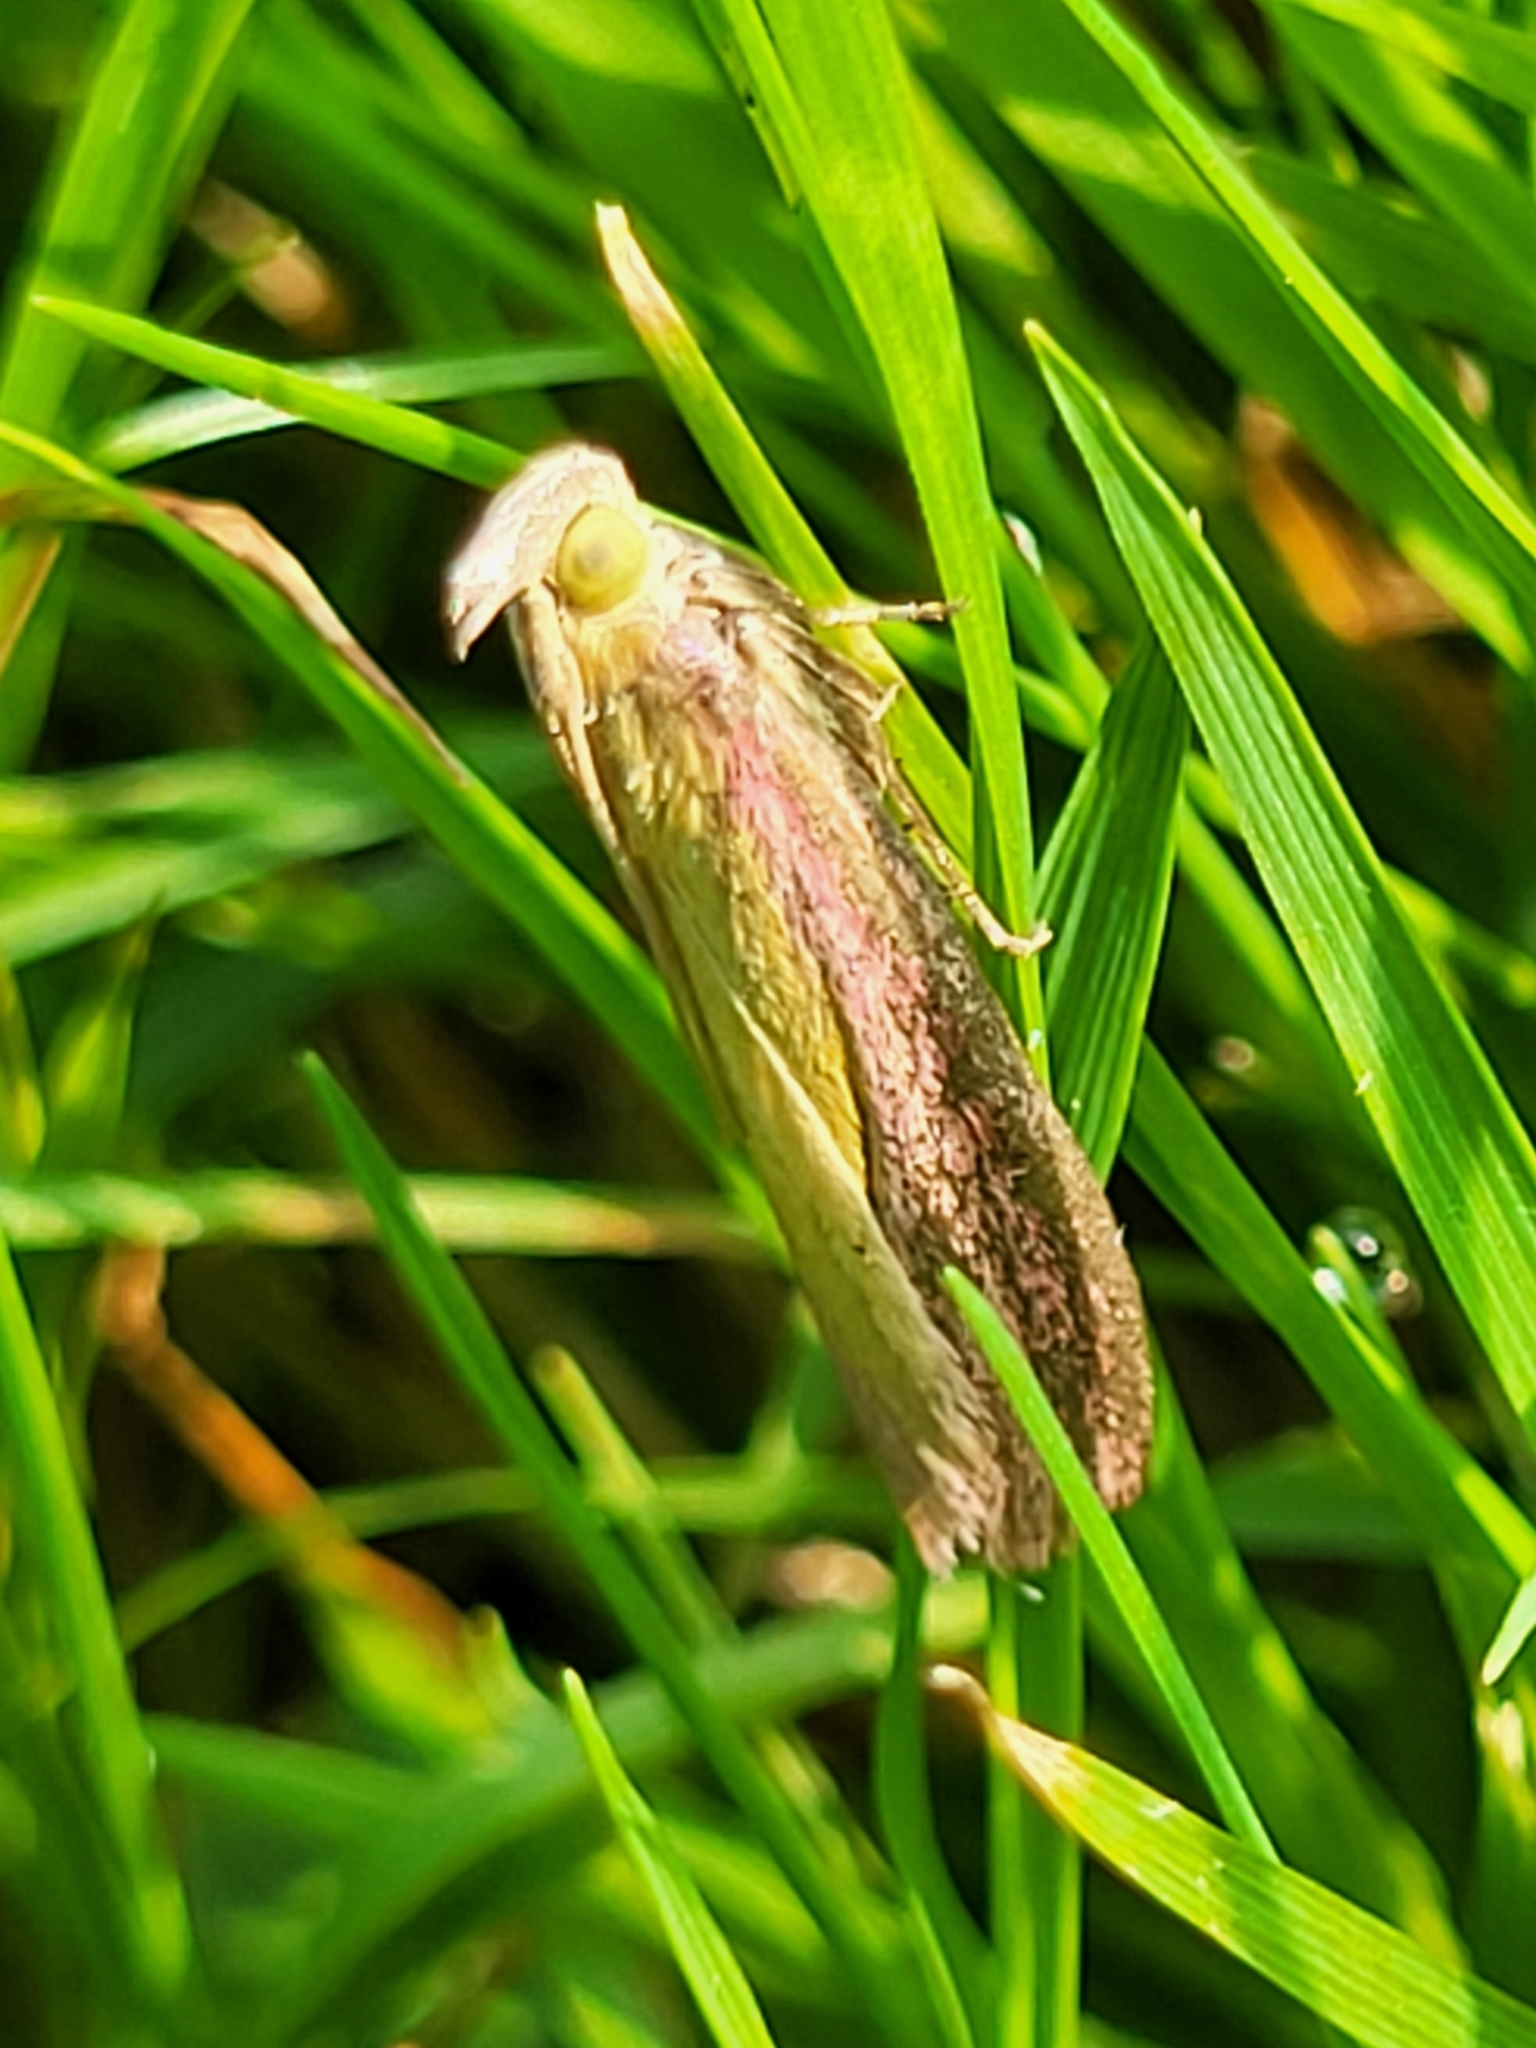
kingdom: Animalia
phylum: Arthropoda
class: Insecta
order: Lepidoptera
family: Pyralidae
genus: Oncocera
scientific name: Oncocera semirubella
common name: Rosy-striped knot-horn
